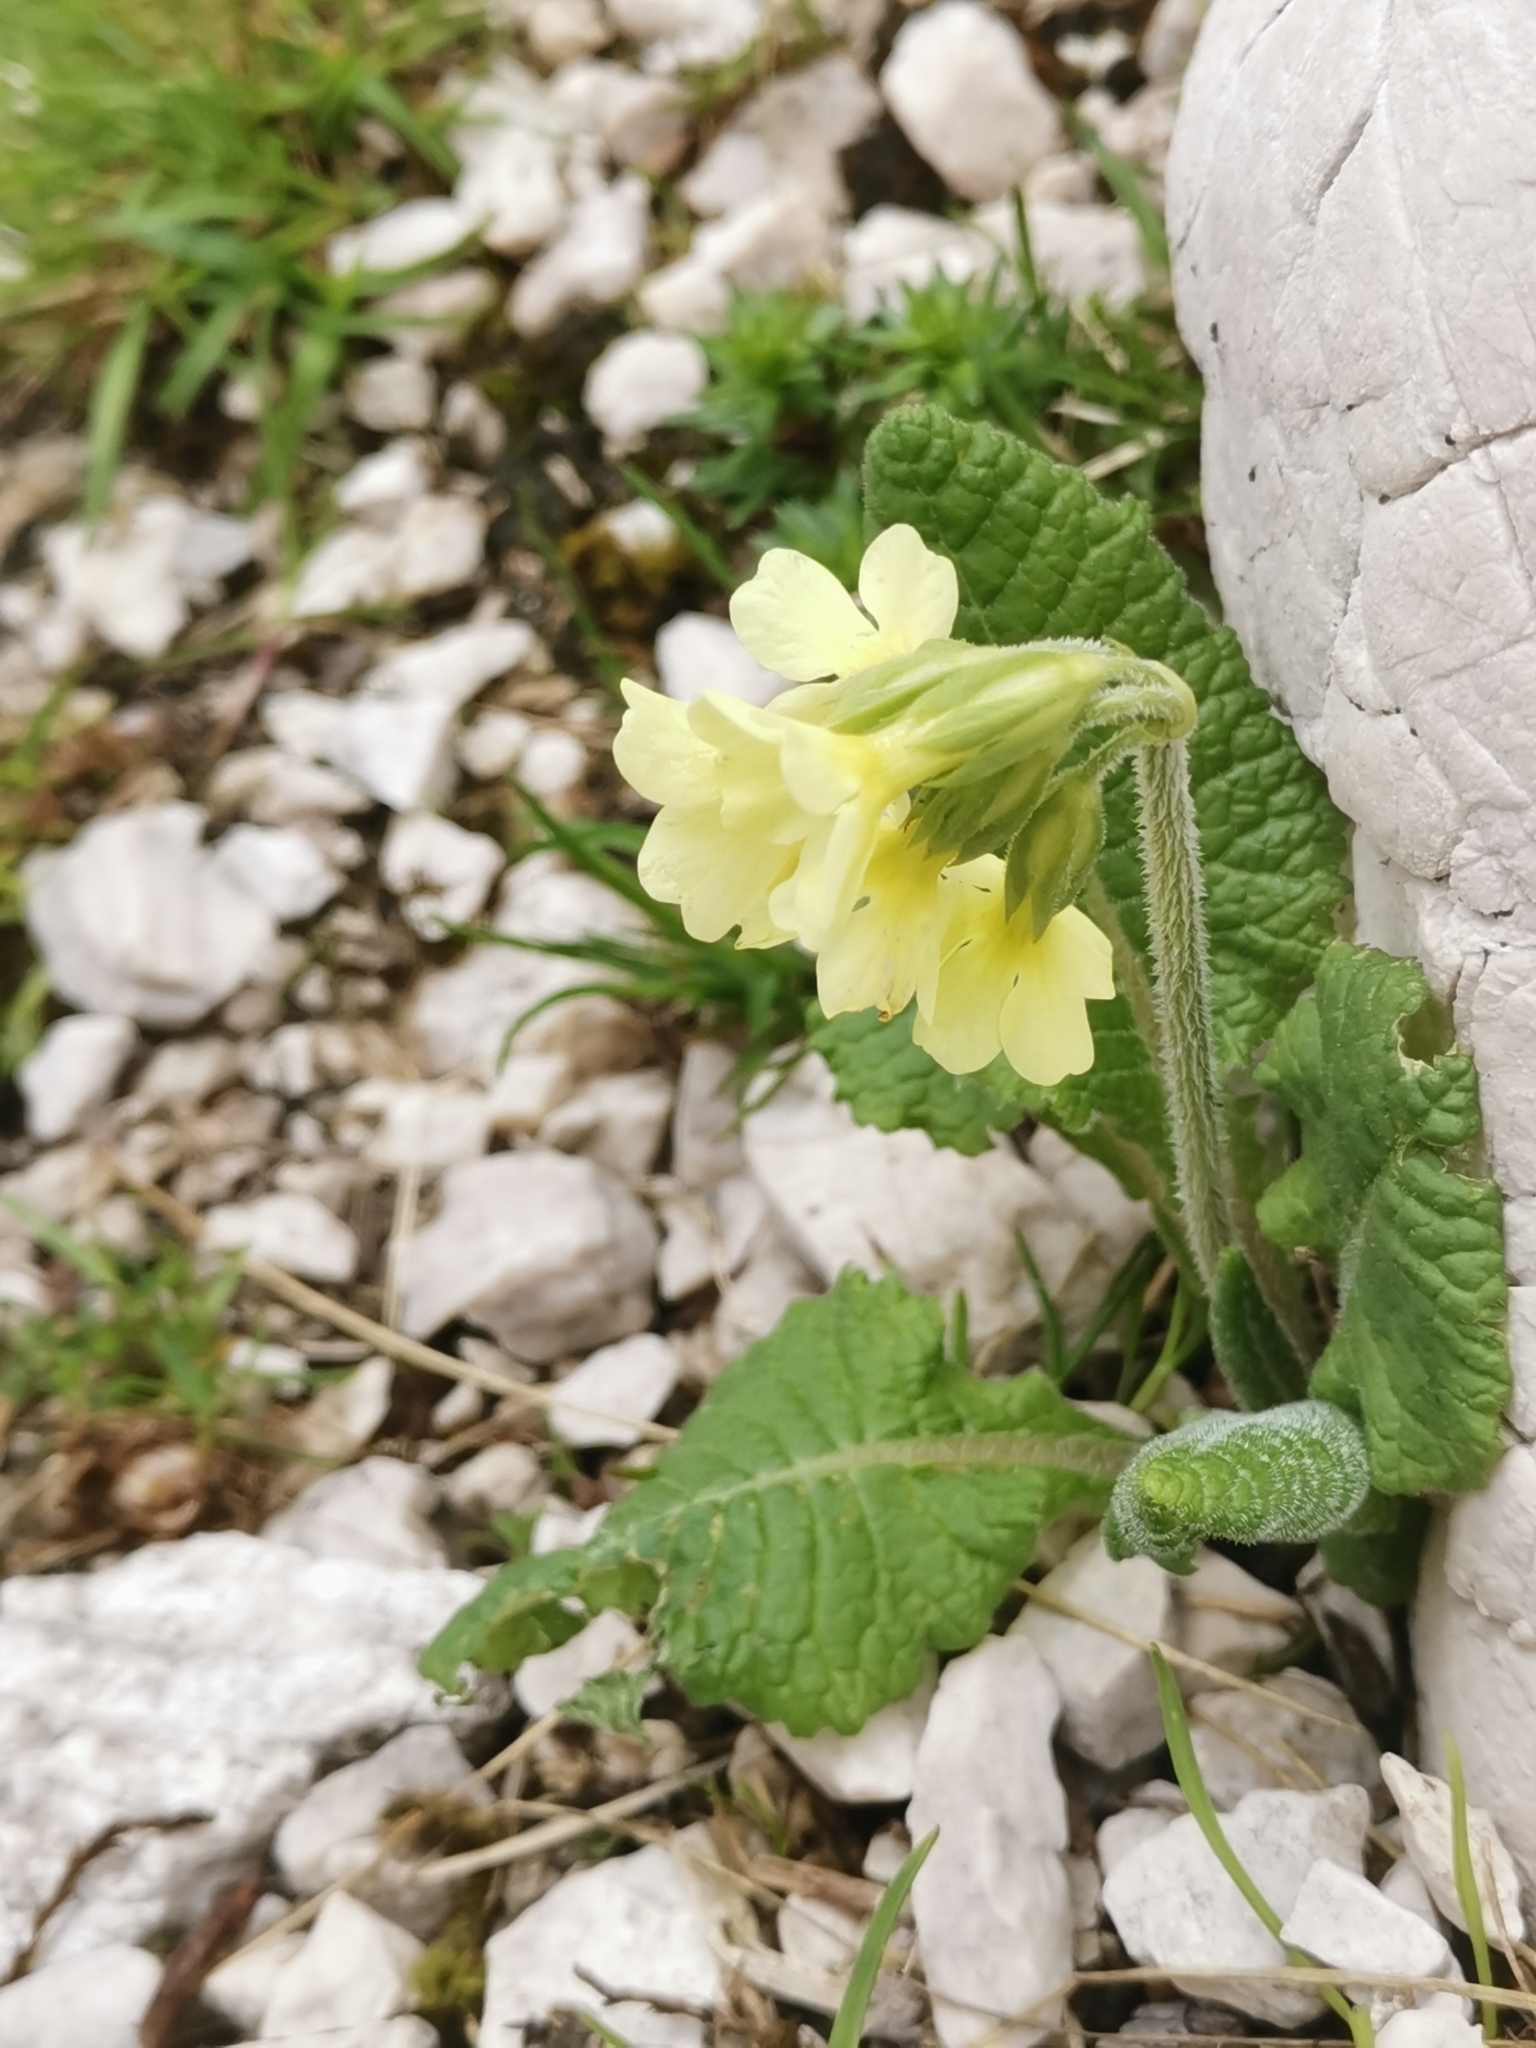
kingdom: Plantae
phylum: Tracheophyta
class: Magnoliopsida
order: Ericales
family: Primulaceae
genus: Primula
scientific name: Primula elatior
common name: Oxlip
